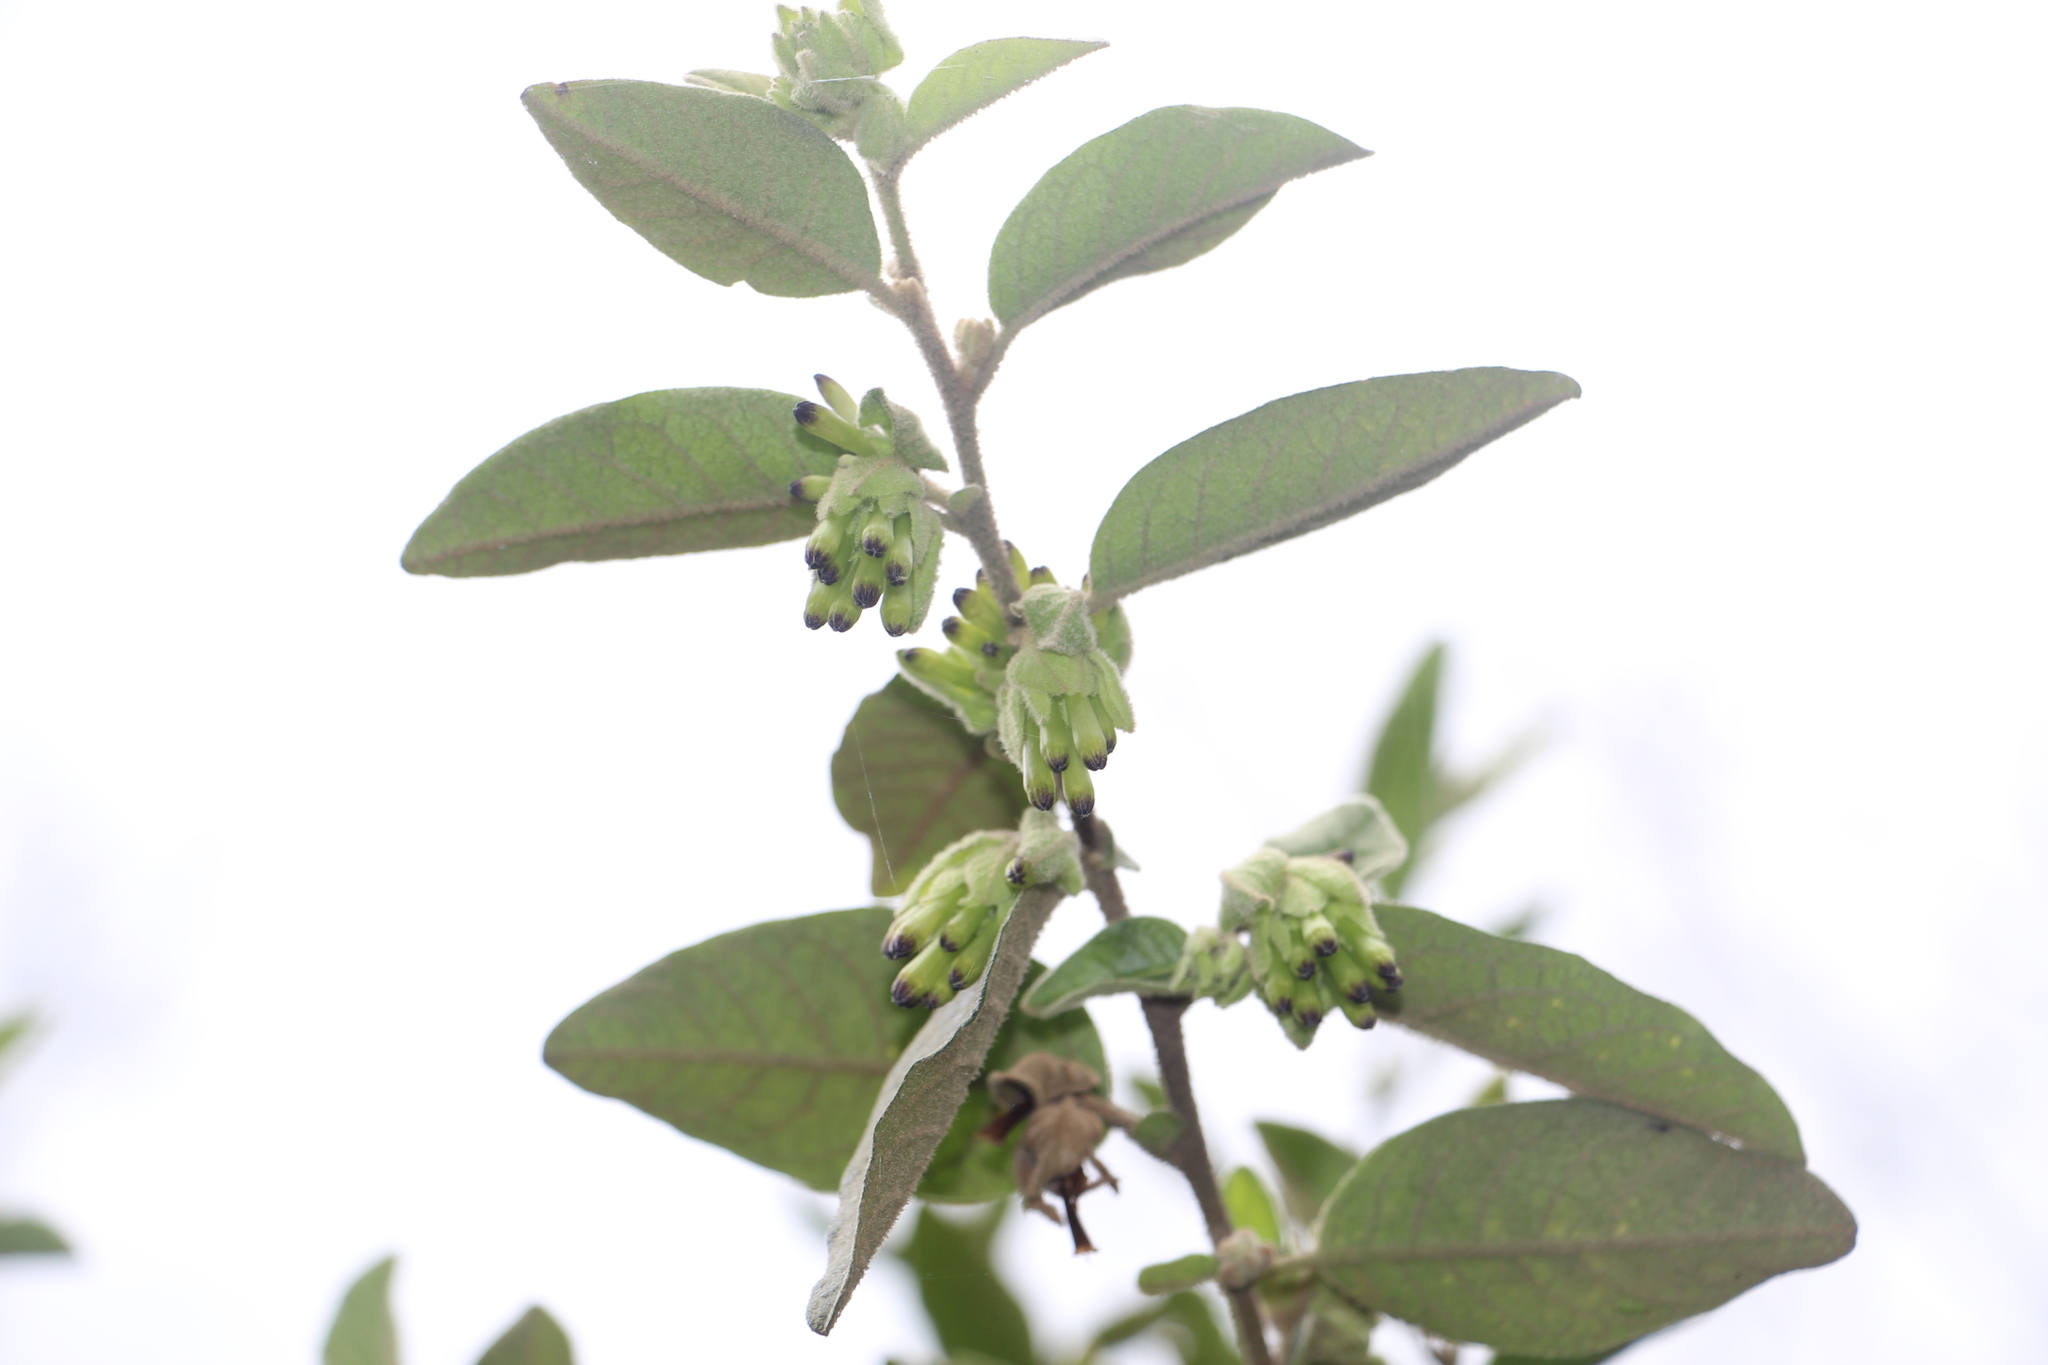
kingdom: Plantae
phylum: Tracheophyta
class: Magnoliopsida
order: Solanales
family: Solanaceae
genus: Cestrum
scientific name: Cestrum tomentosum
